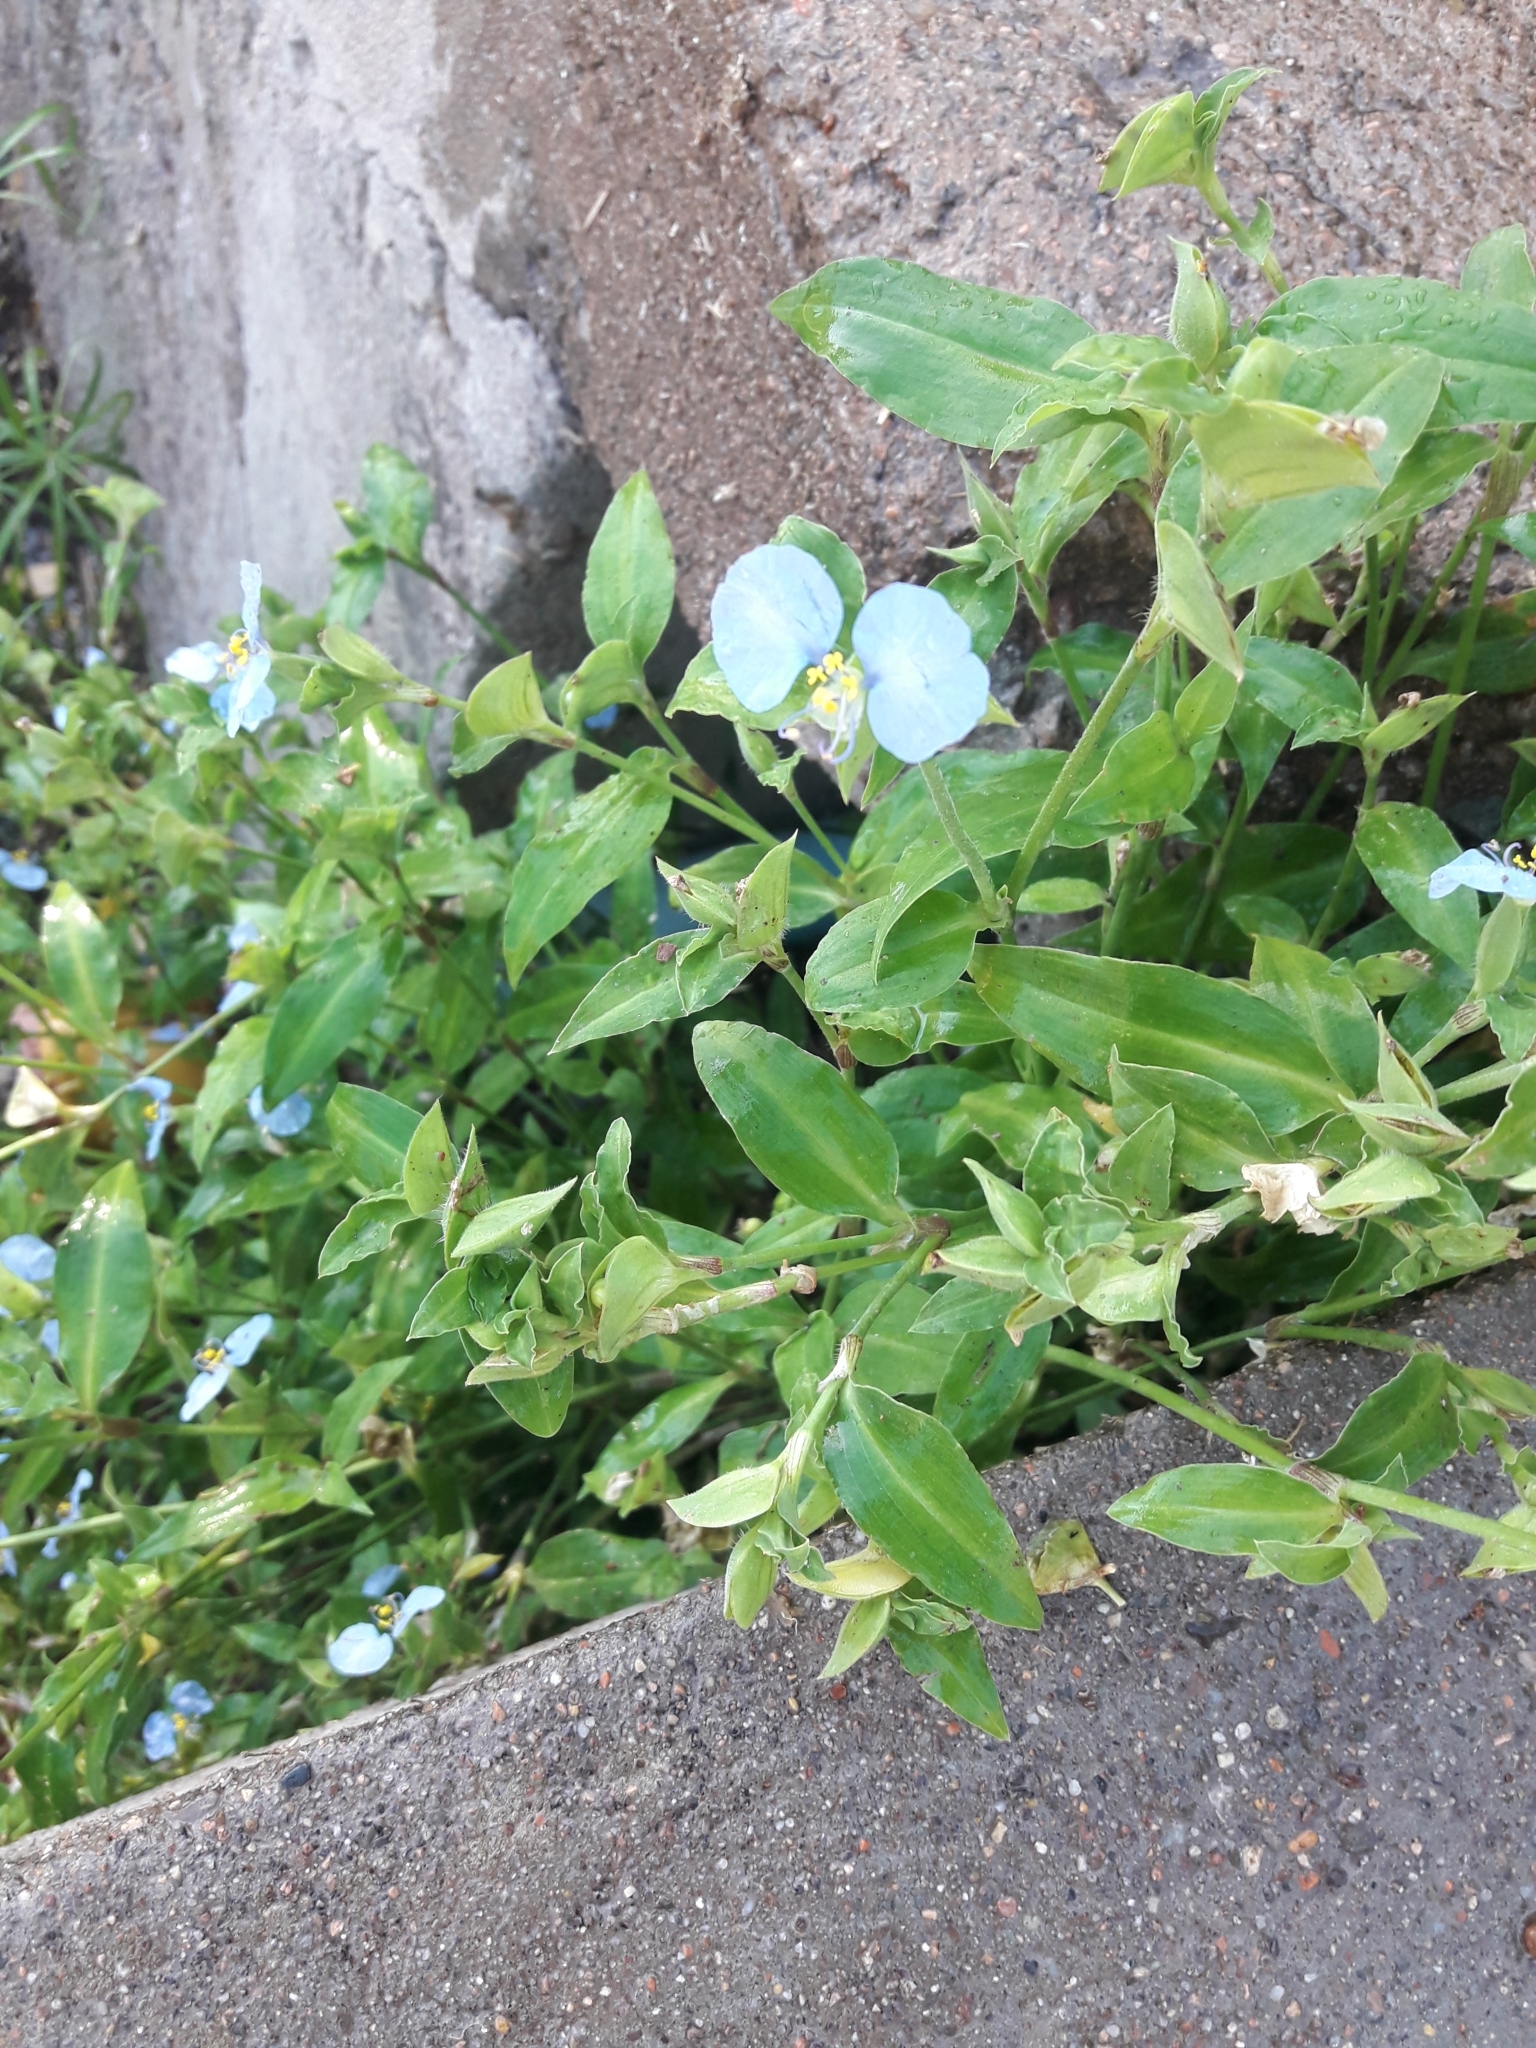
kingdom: Plantae
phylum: Tracheophyta
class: Liliopsida
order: Commelinales
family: Commelinaceae
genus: Commelina
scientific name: Commelina erecta
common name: Blousel blommetjie
